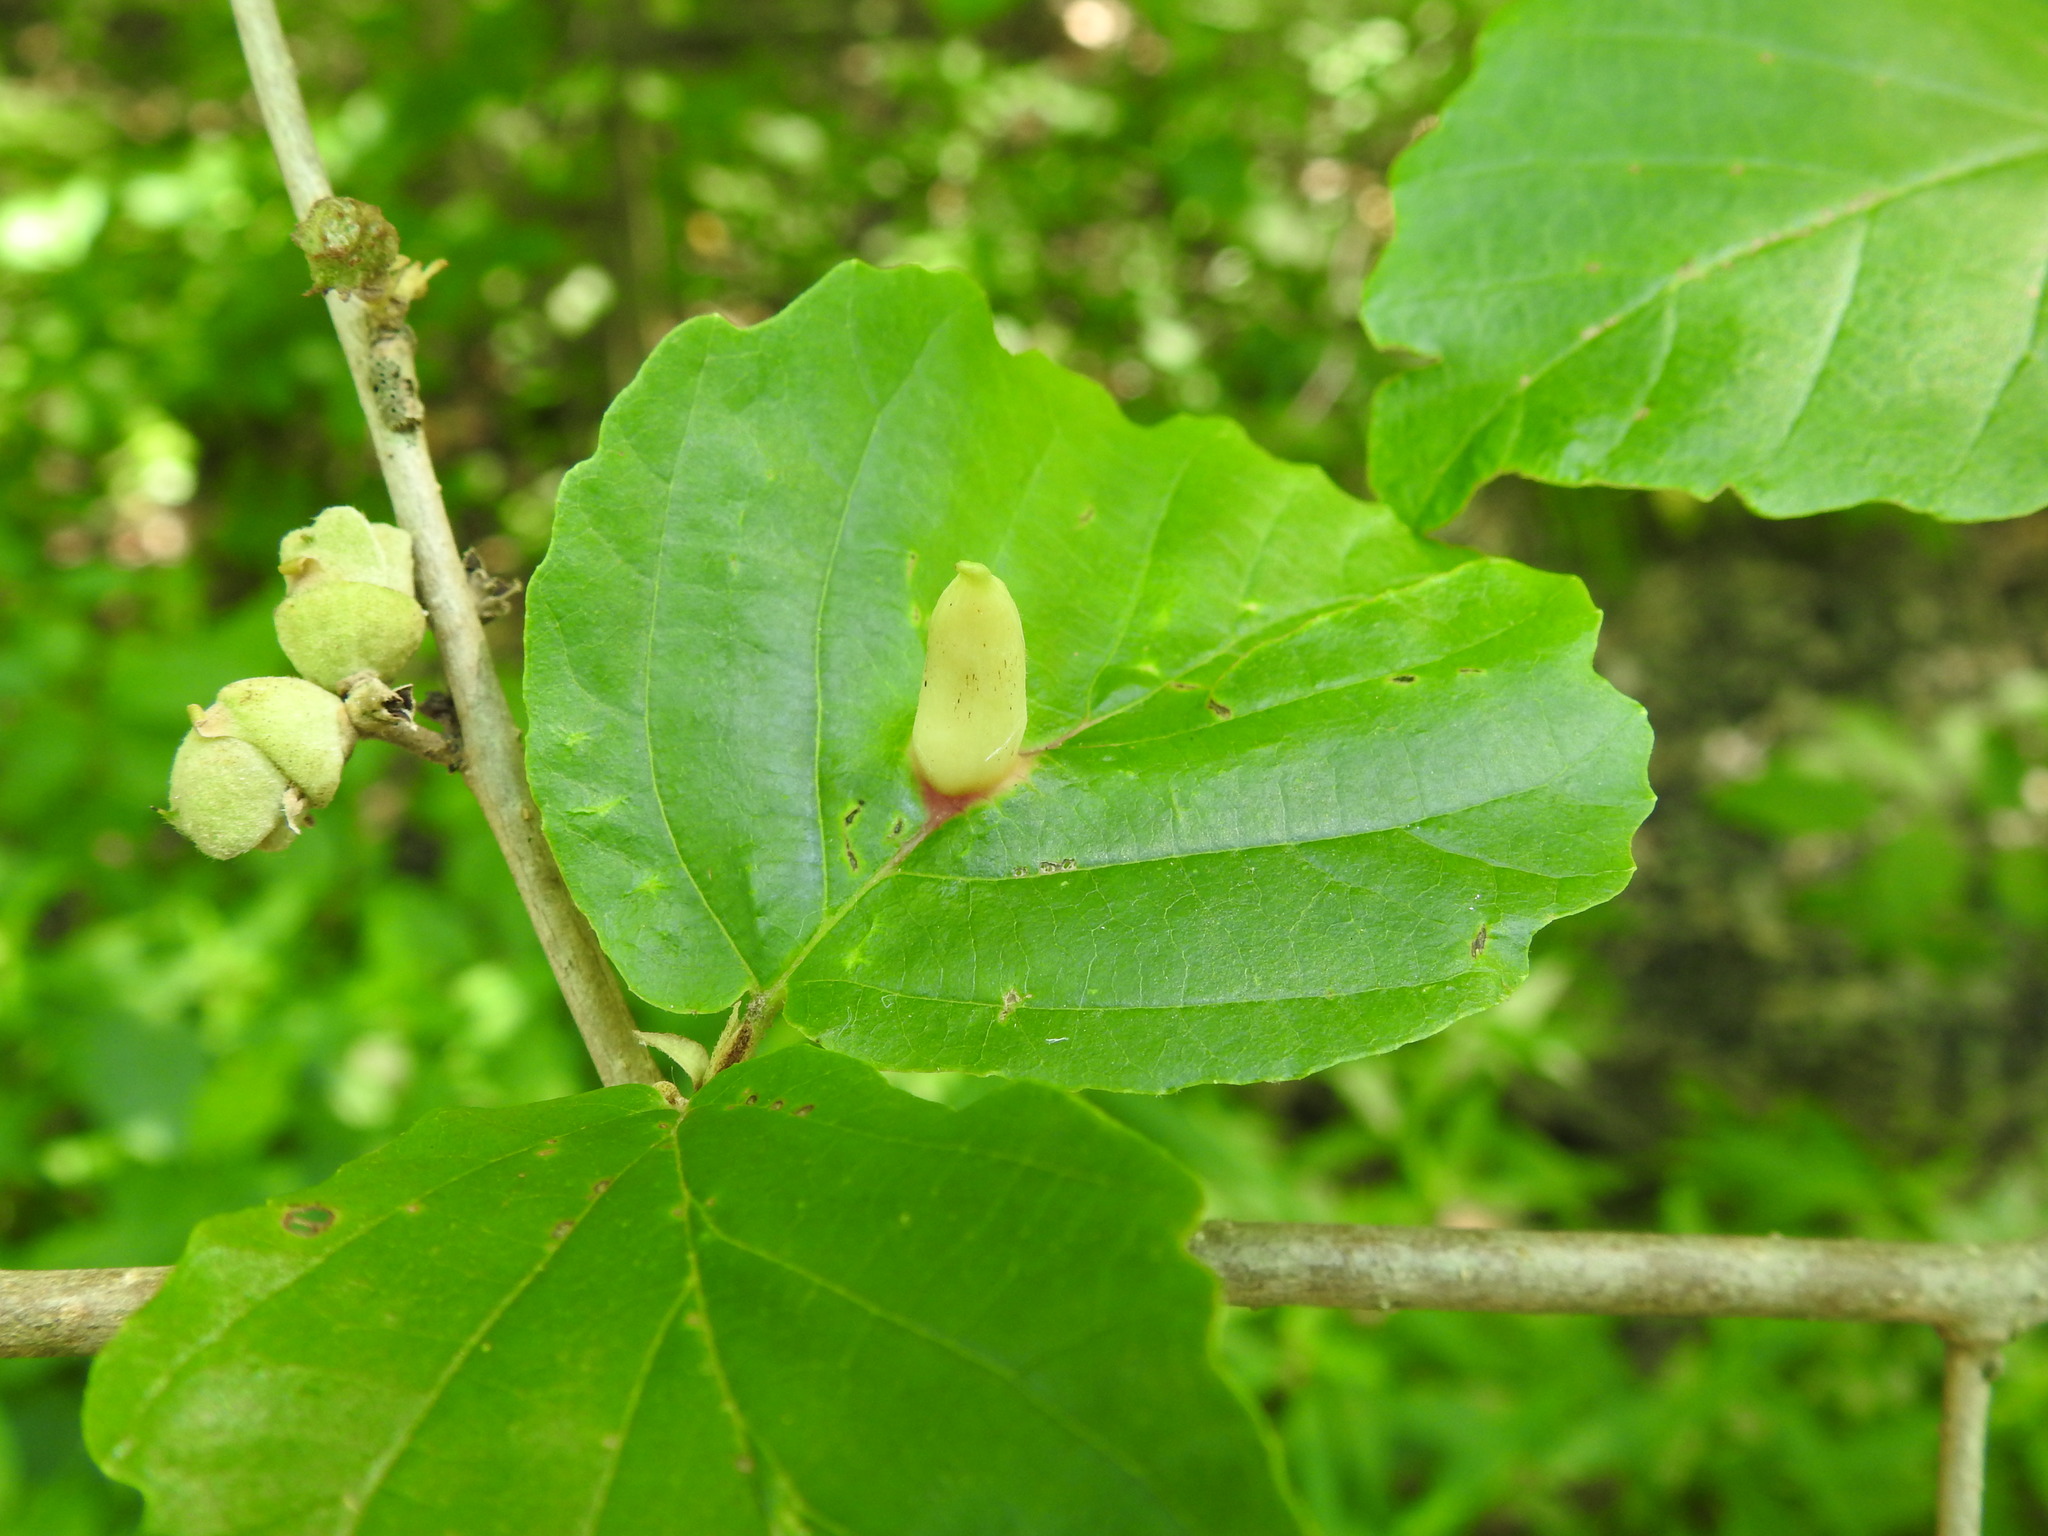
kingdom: Animalia
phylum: Arthropoda
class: Insecta
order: Hemiptera
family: Aphididae
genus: Hormaphis
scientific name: Hormaphis hamamelidis
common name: Witch-hazel cone gall aphid
